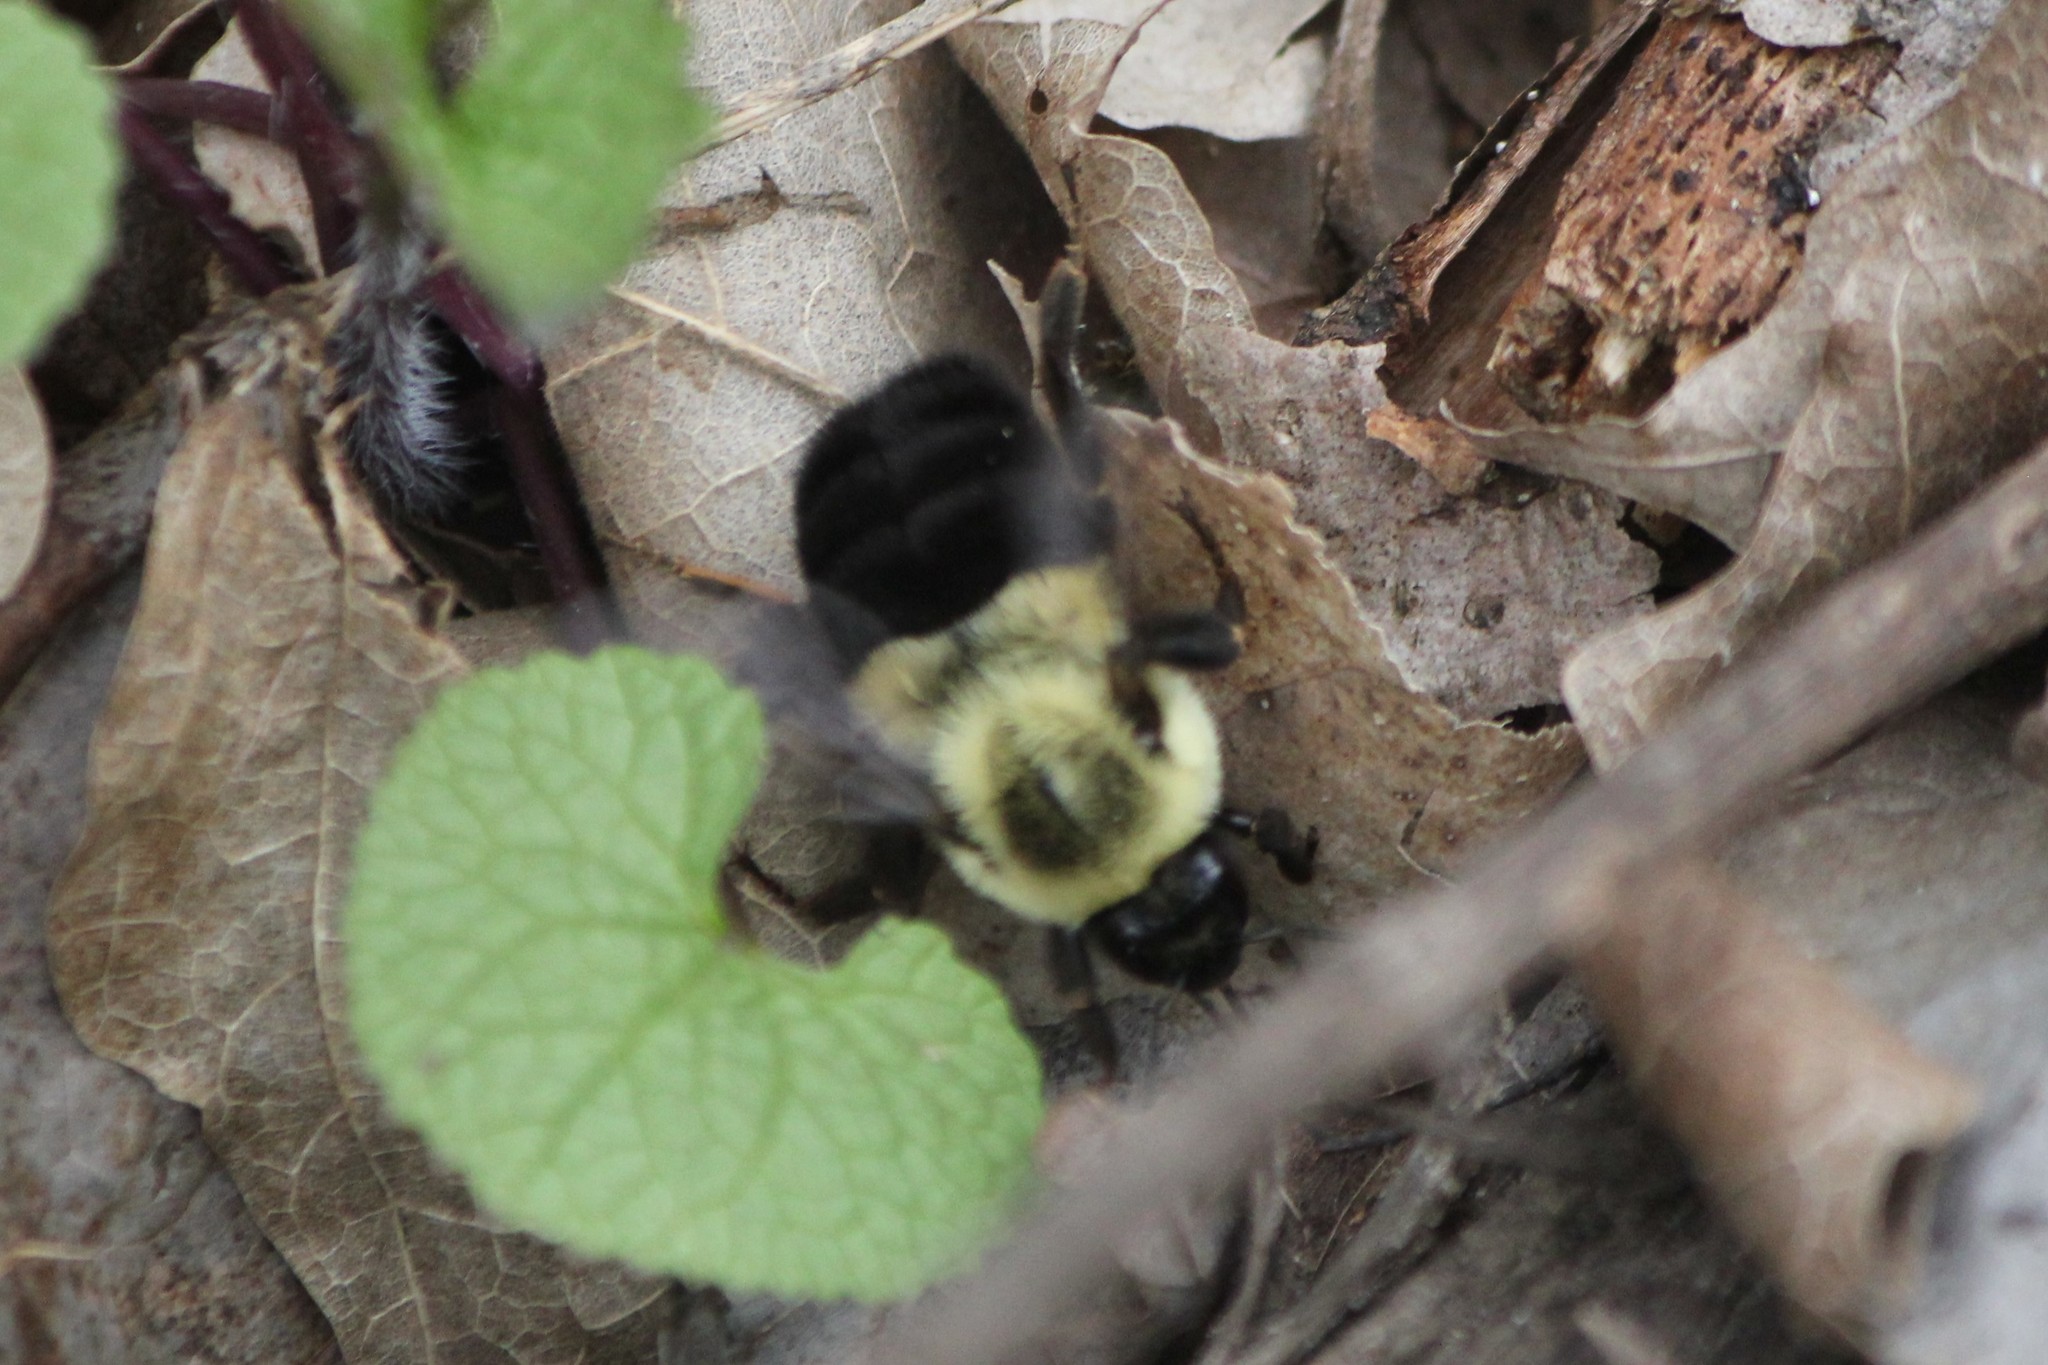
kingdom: Animalia
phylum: Arthropoda
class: Insecta
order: Hymenoptera
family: Apidae
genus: Bombus
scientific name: Bombus impatiens
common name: Common eastern bumble bee
